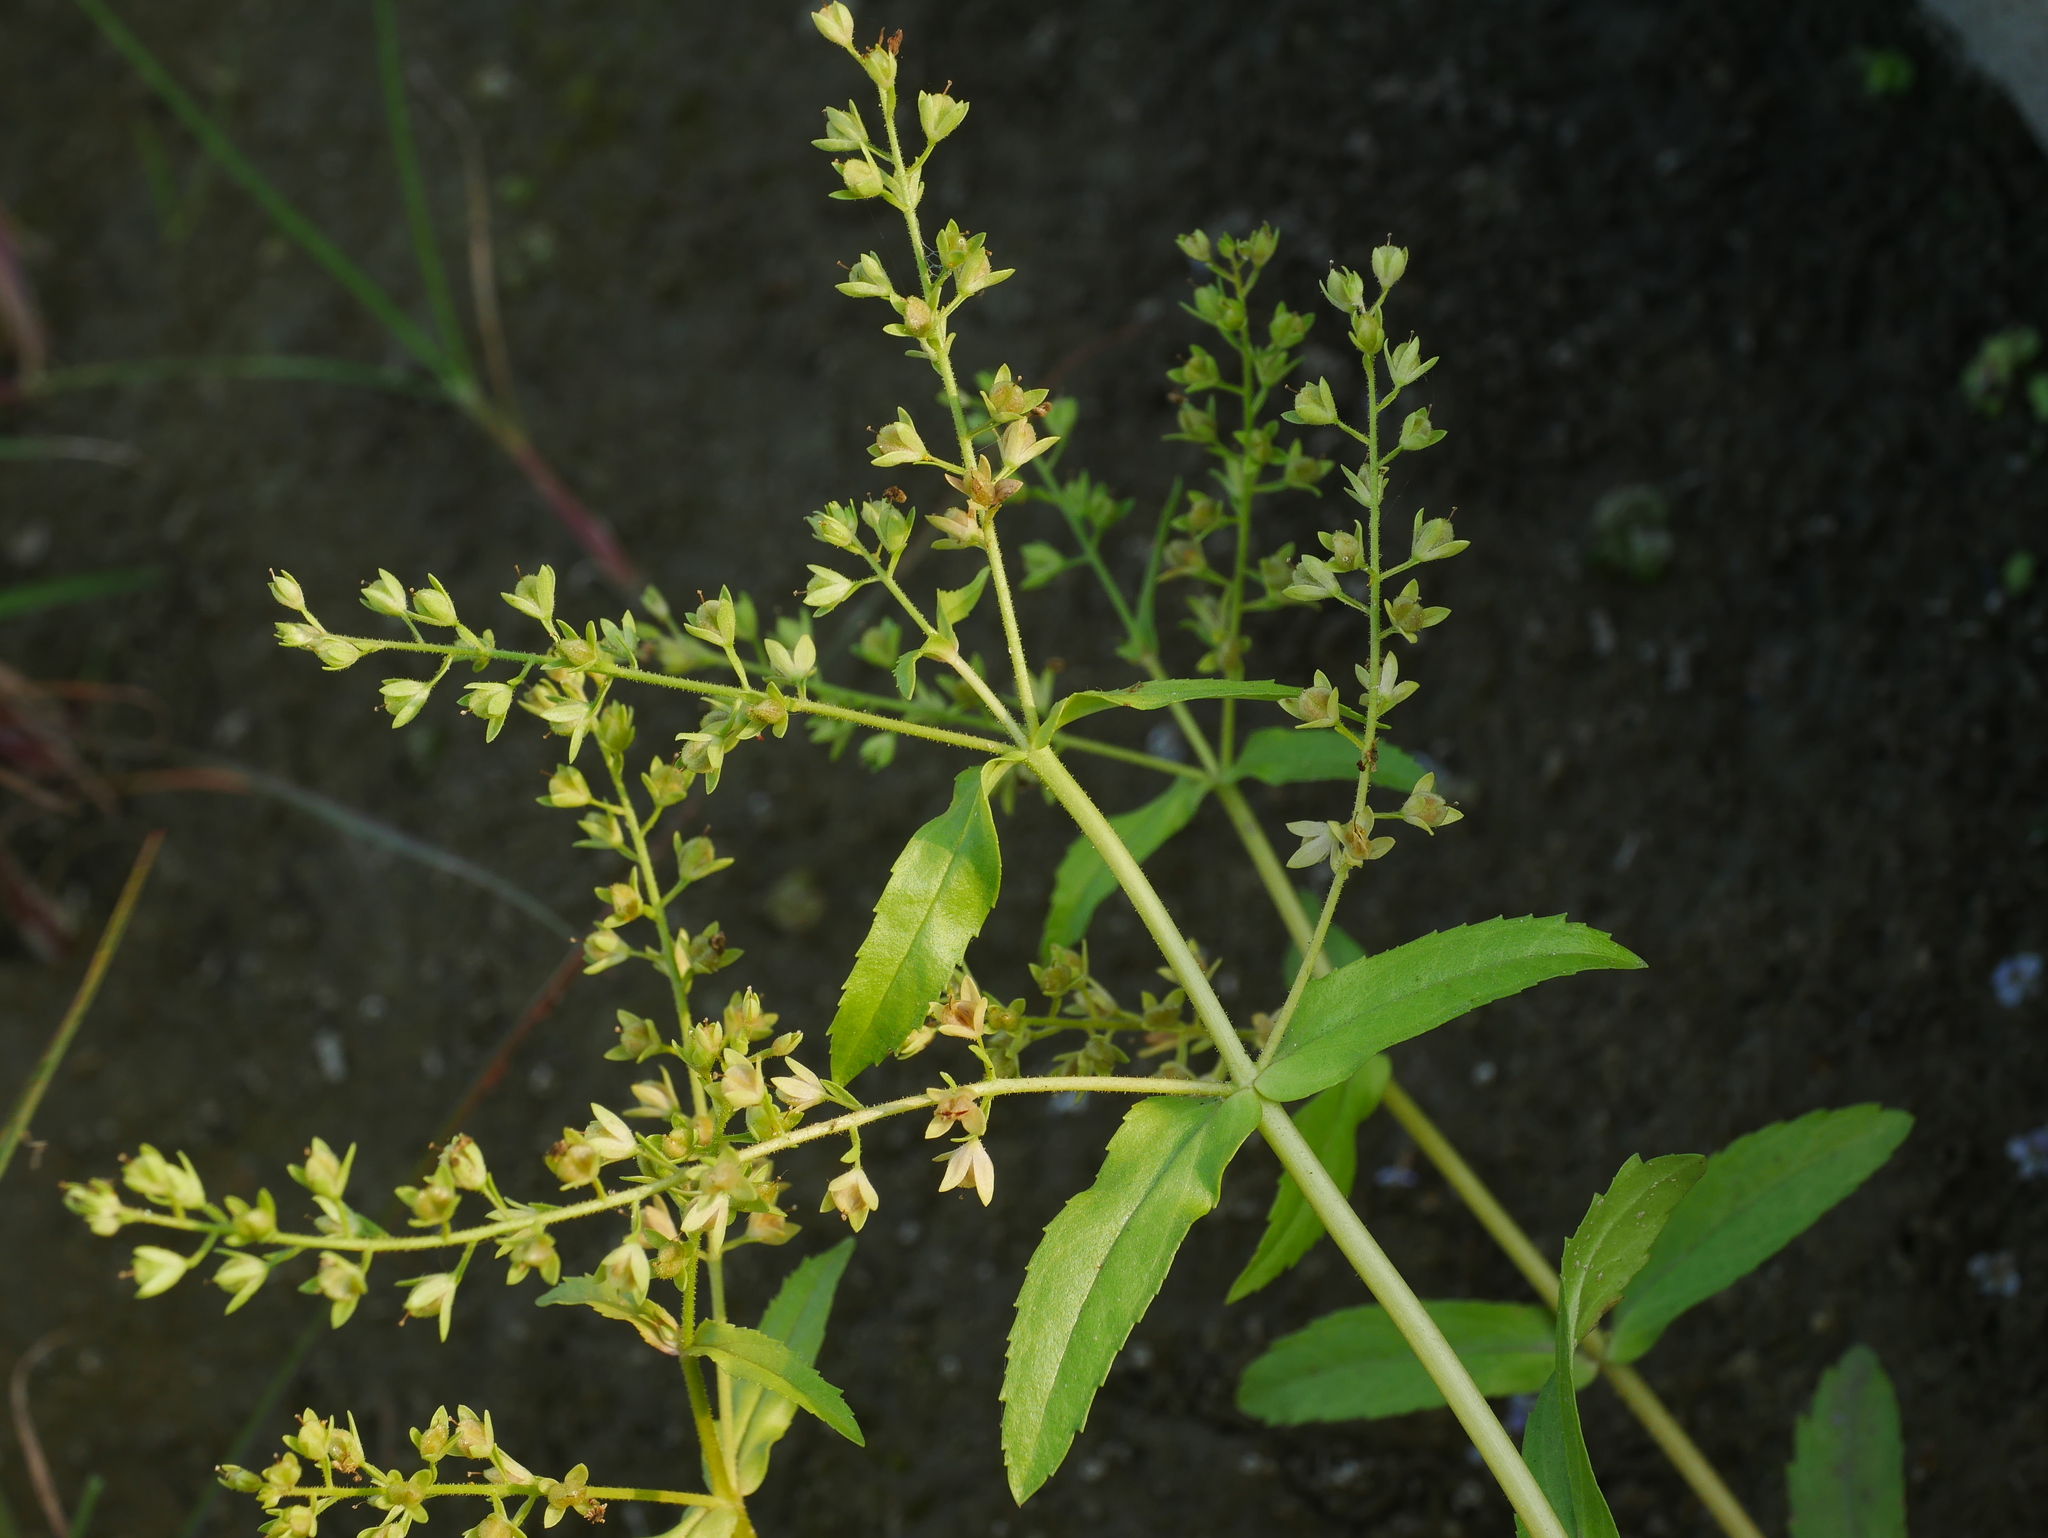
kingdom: Plantae
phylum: Tracheophyta
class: Magnoliopsida
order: Lamiales
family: Plantaginaceae
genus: Veronica
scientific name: Veronica undulata
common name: Undulate speedwell
